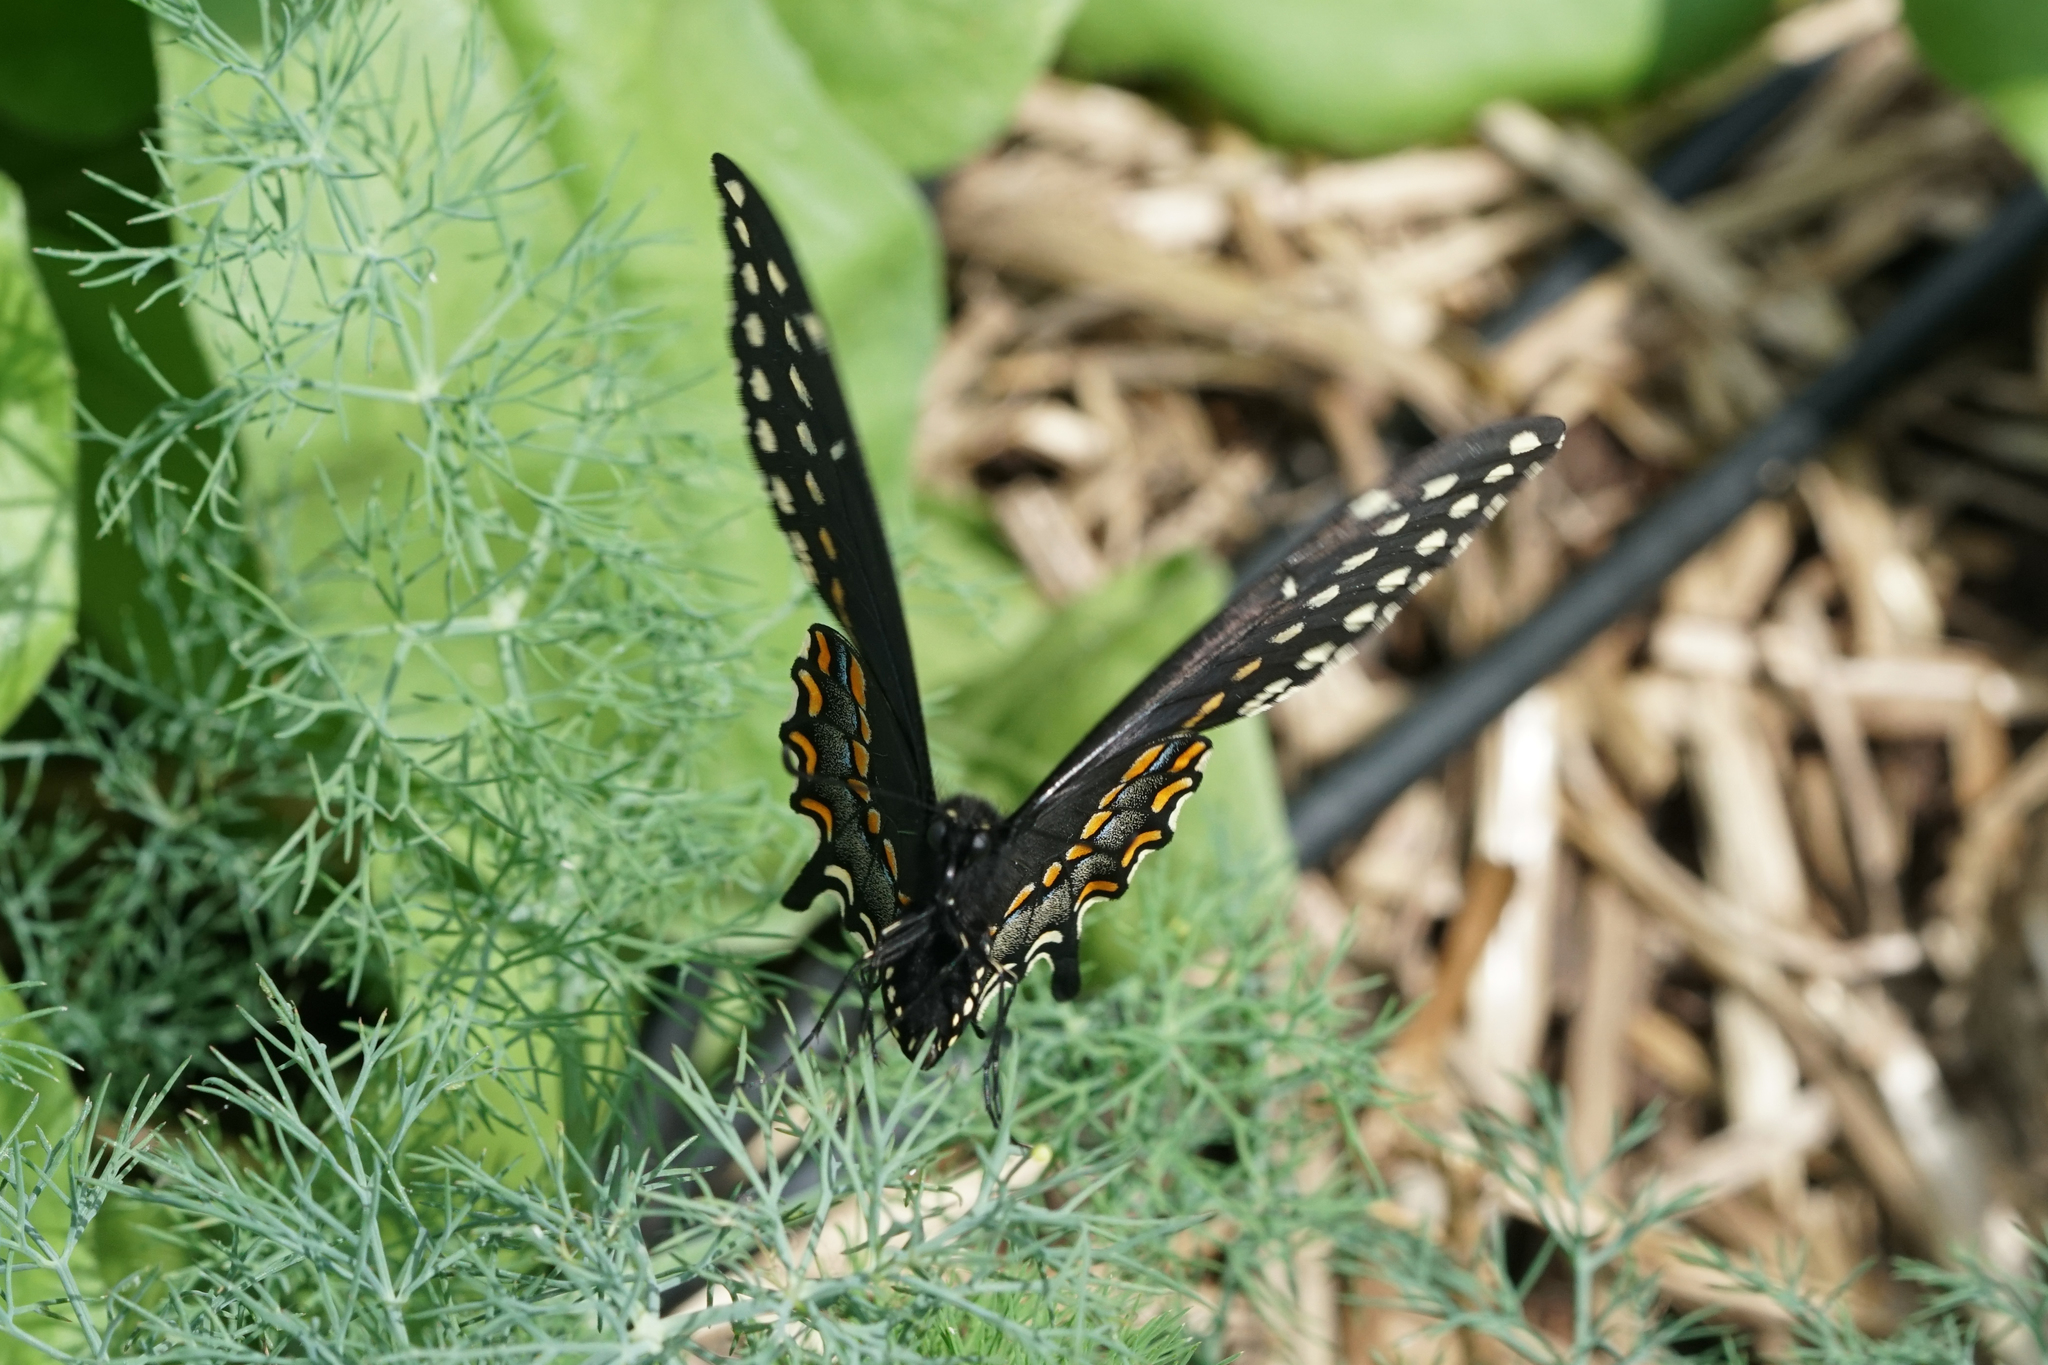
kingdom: Animalia
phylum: Arthropoda
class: Insecta
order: Lepidoptera
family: Papilionidae
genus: Papilio
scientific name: Papilio polyxenes
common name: Black swallowtail
